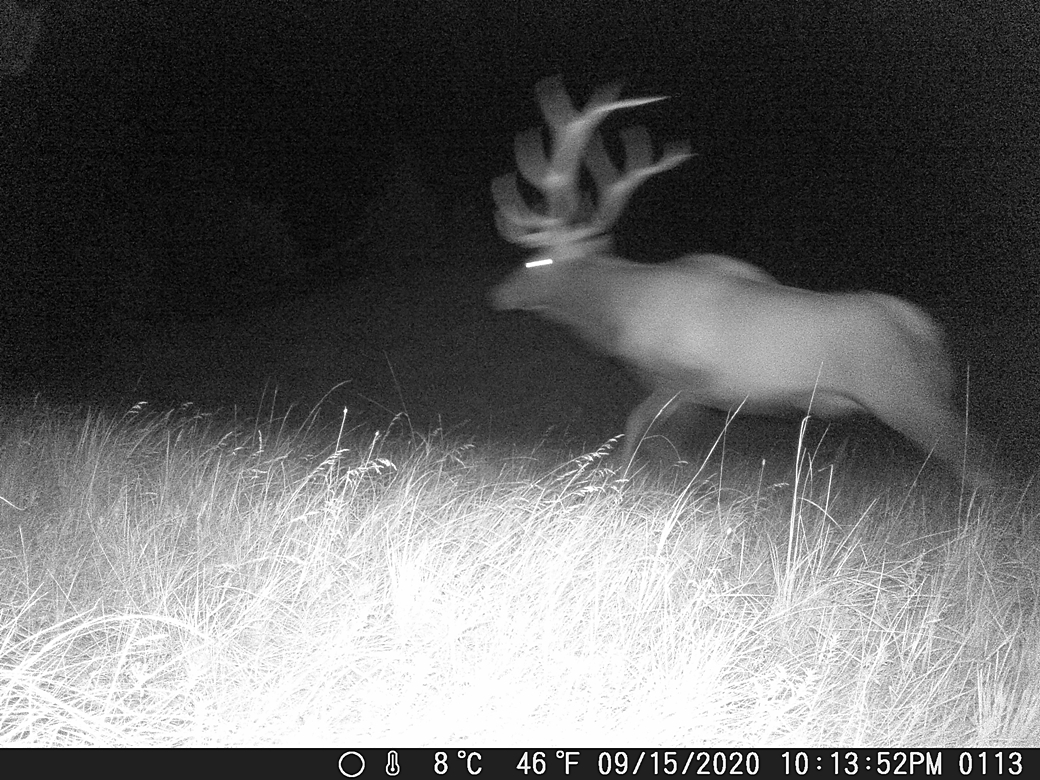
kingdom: Animalia
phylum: Chordata
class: Mammalia
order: Artiodactyla
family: Cervidae
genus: Cervus
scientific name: Cervus elaphus
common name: Red deer
